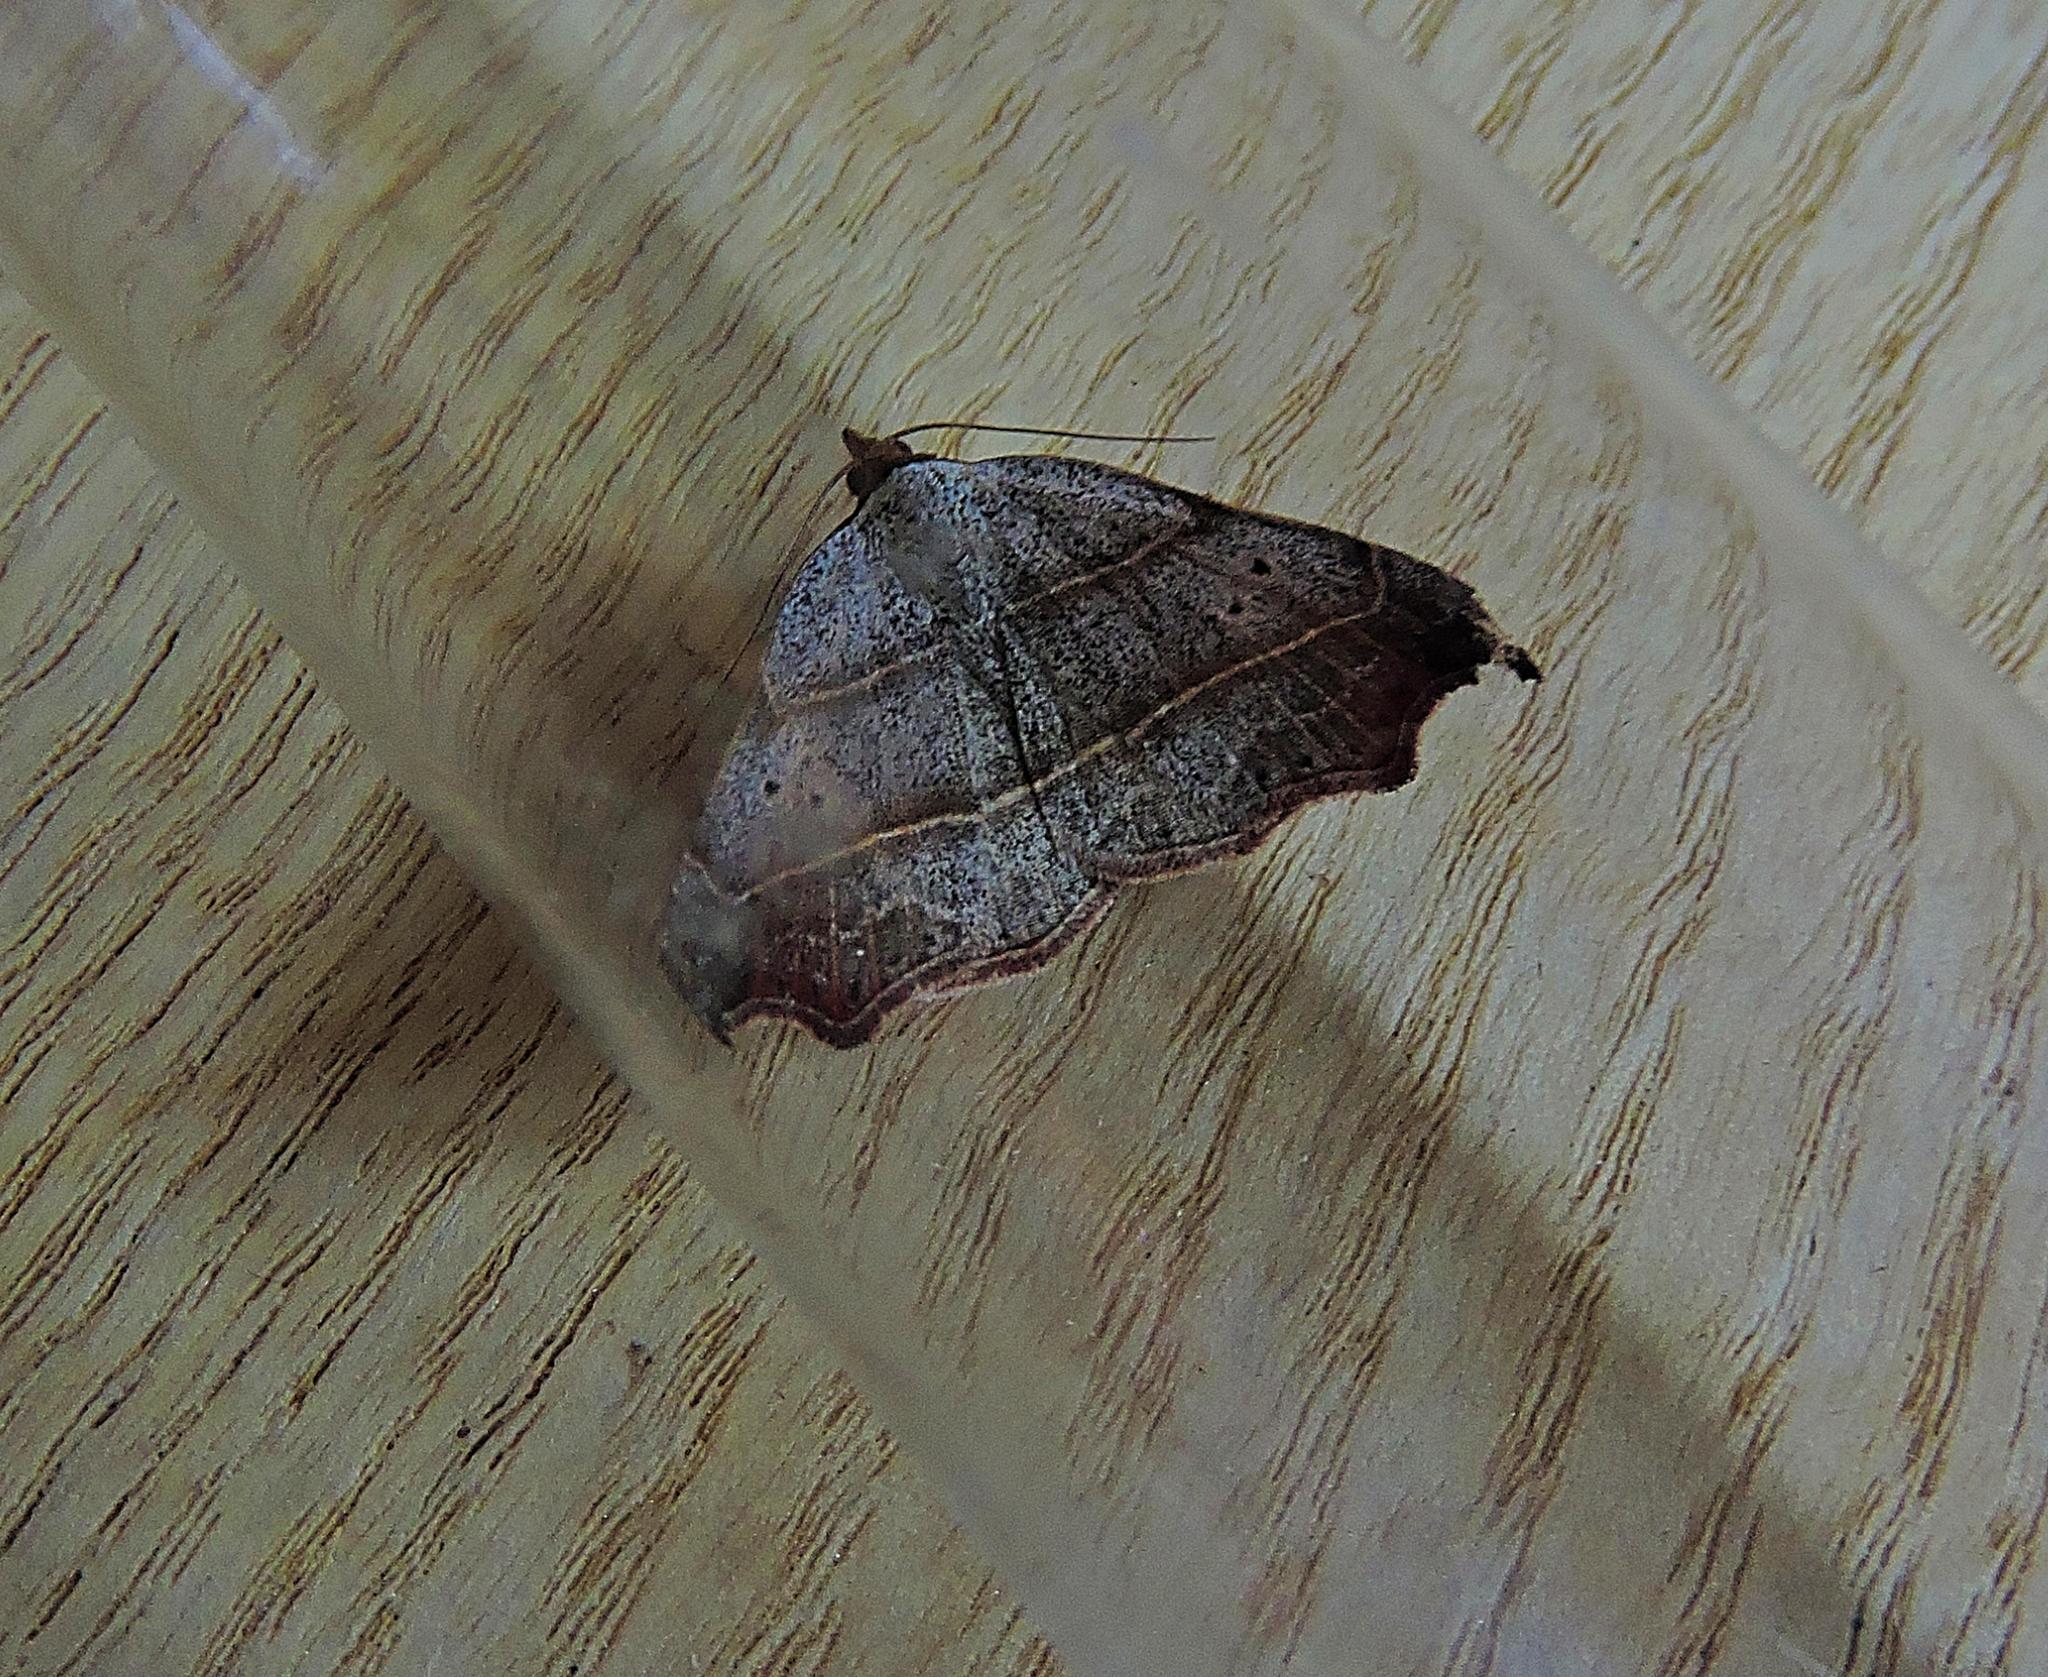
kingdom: Animalia
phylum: Arthropoda
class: Insecta
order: Lepidoptera
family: Erebidae
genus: Laspeyria
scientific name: Laspeyria flexula
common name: Beautiful hook-tip
